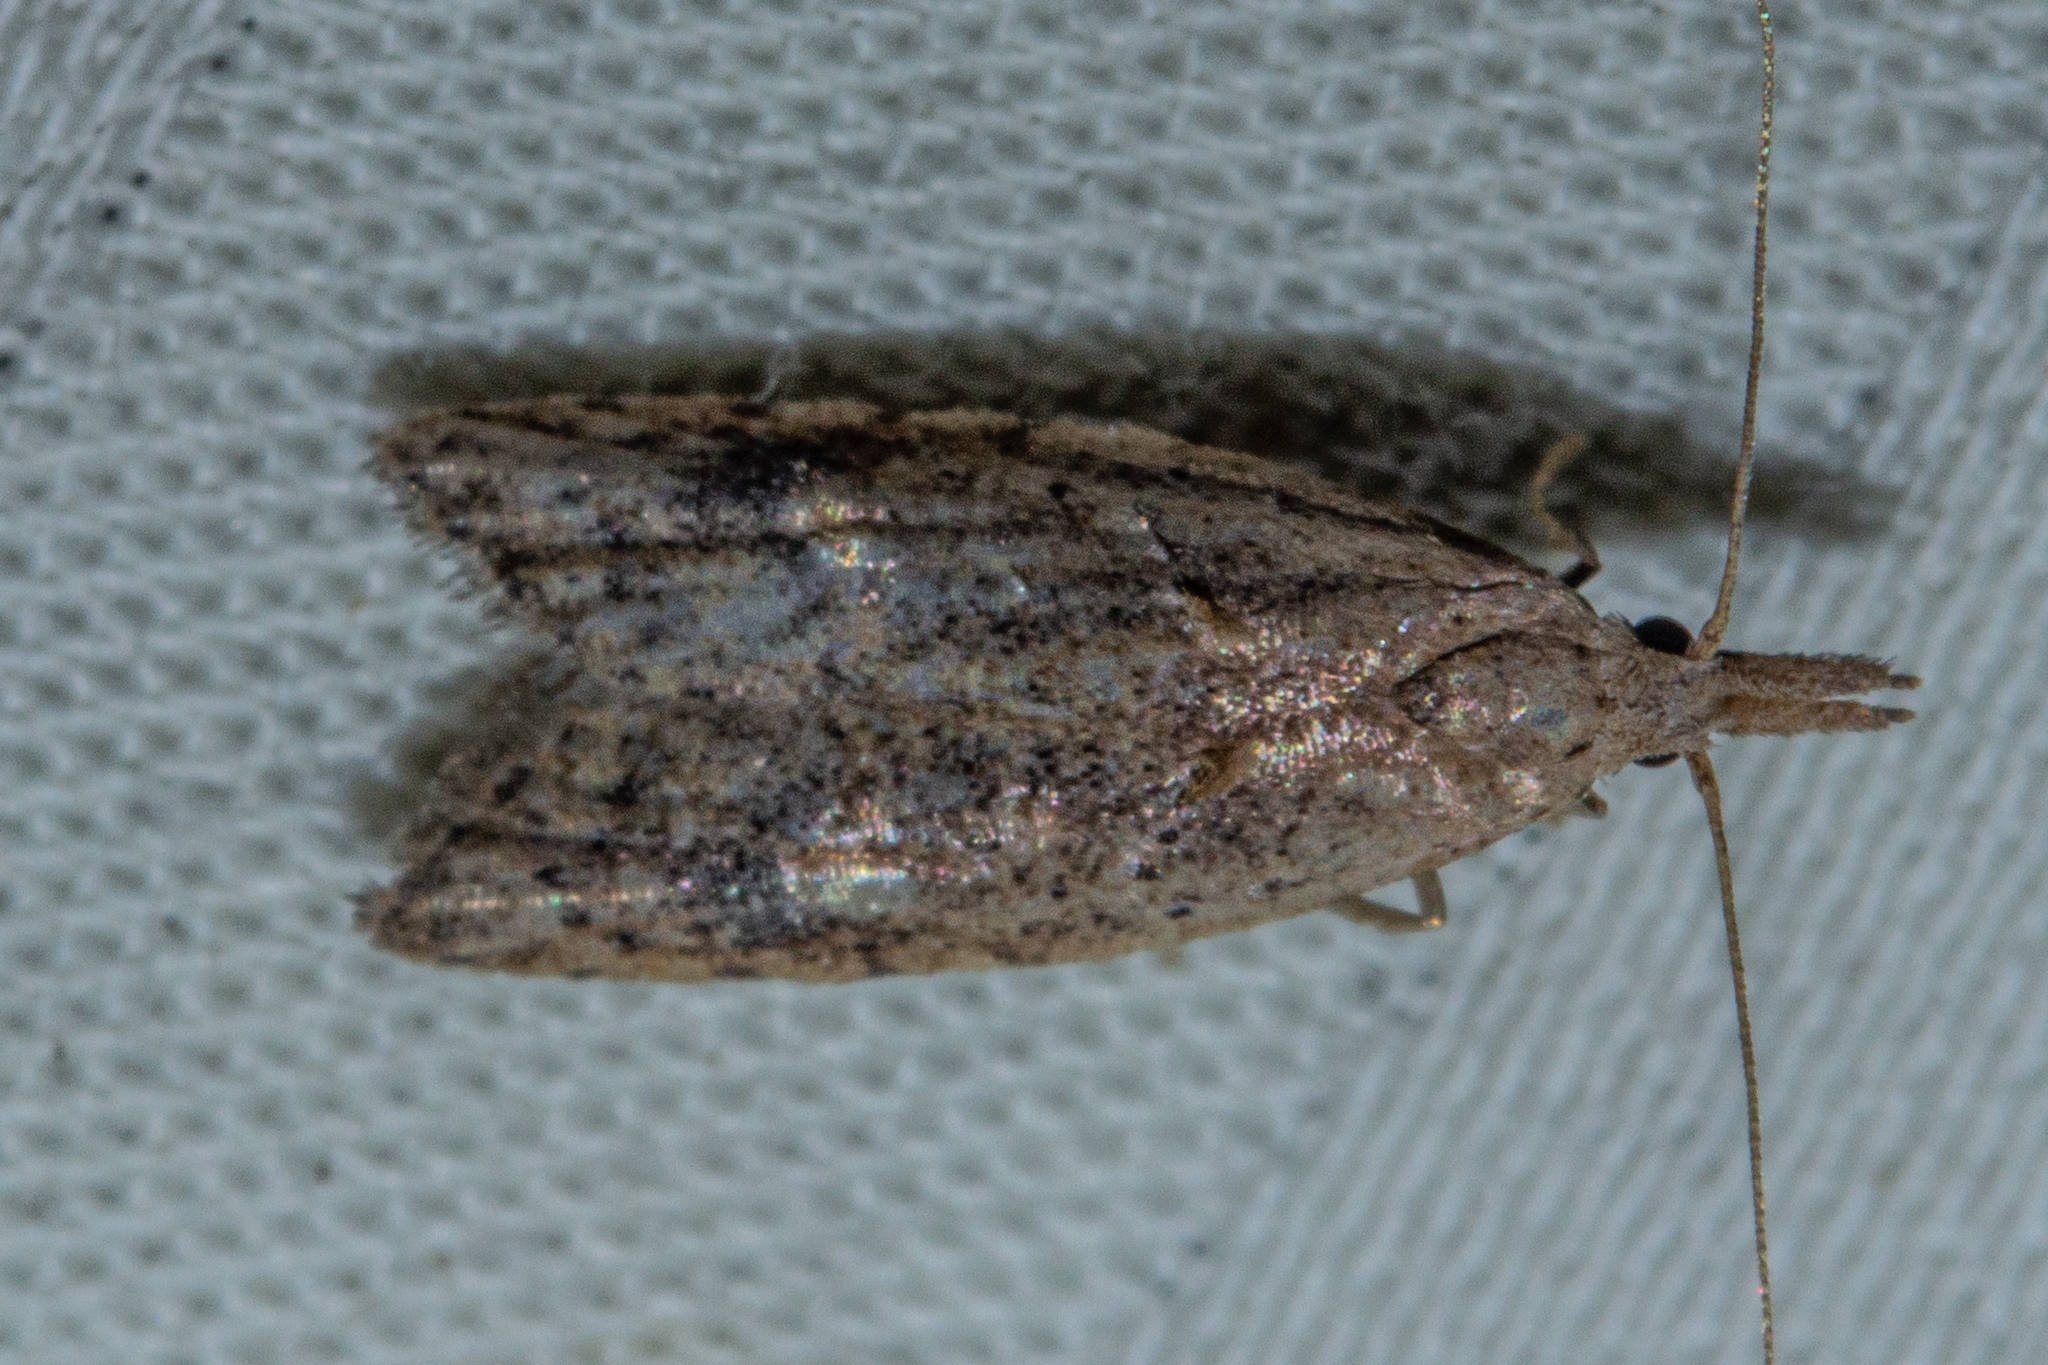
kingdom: Animalia
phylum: Arthropoda
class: Insecta
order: Lepidoptera
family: Carposinidae
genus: Carposina
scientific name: Carposina rubophaga
